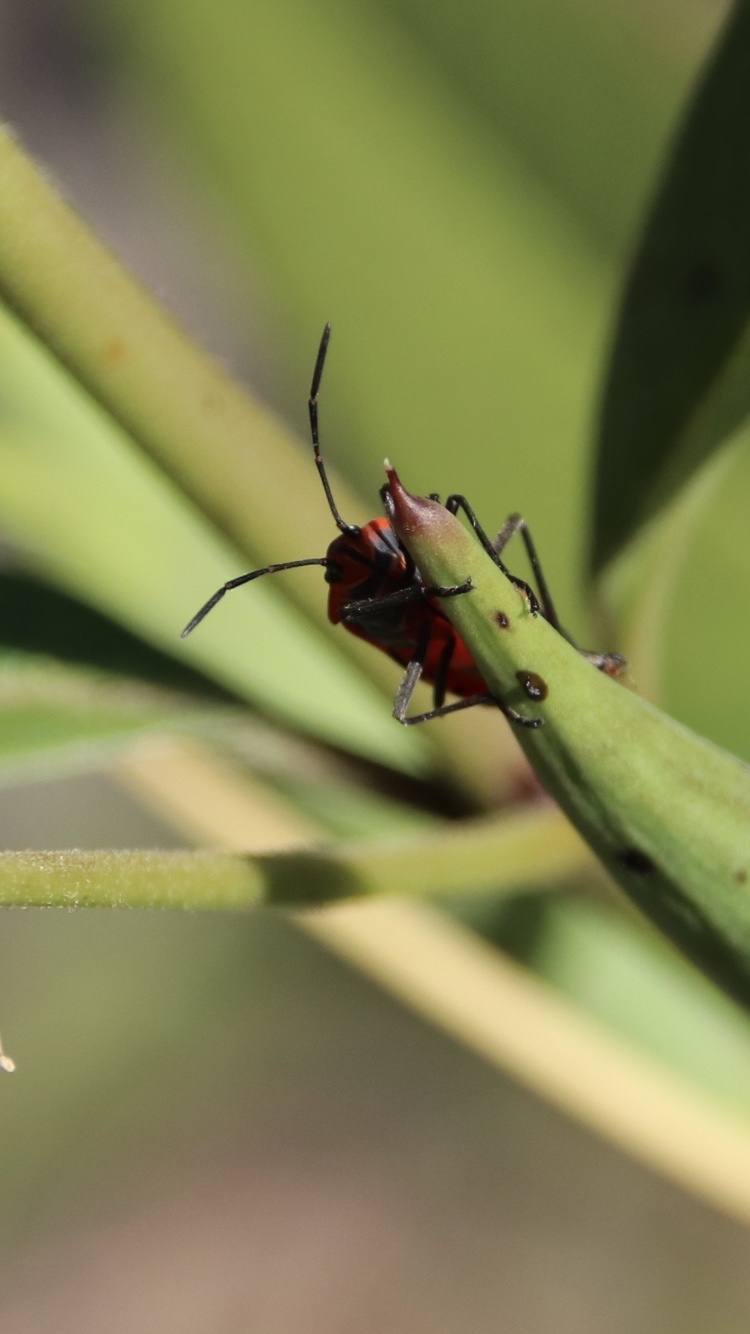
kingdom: Animalia
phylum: Arthropoda
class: Insecta
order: Hemiptera
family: Lygaeidae
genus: Oncopeltus
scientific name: Oncopeltus fasciatus
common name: Large milkweed bug
